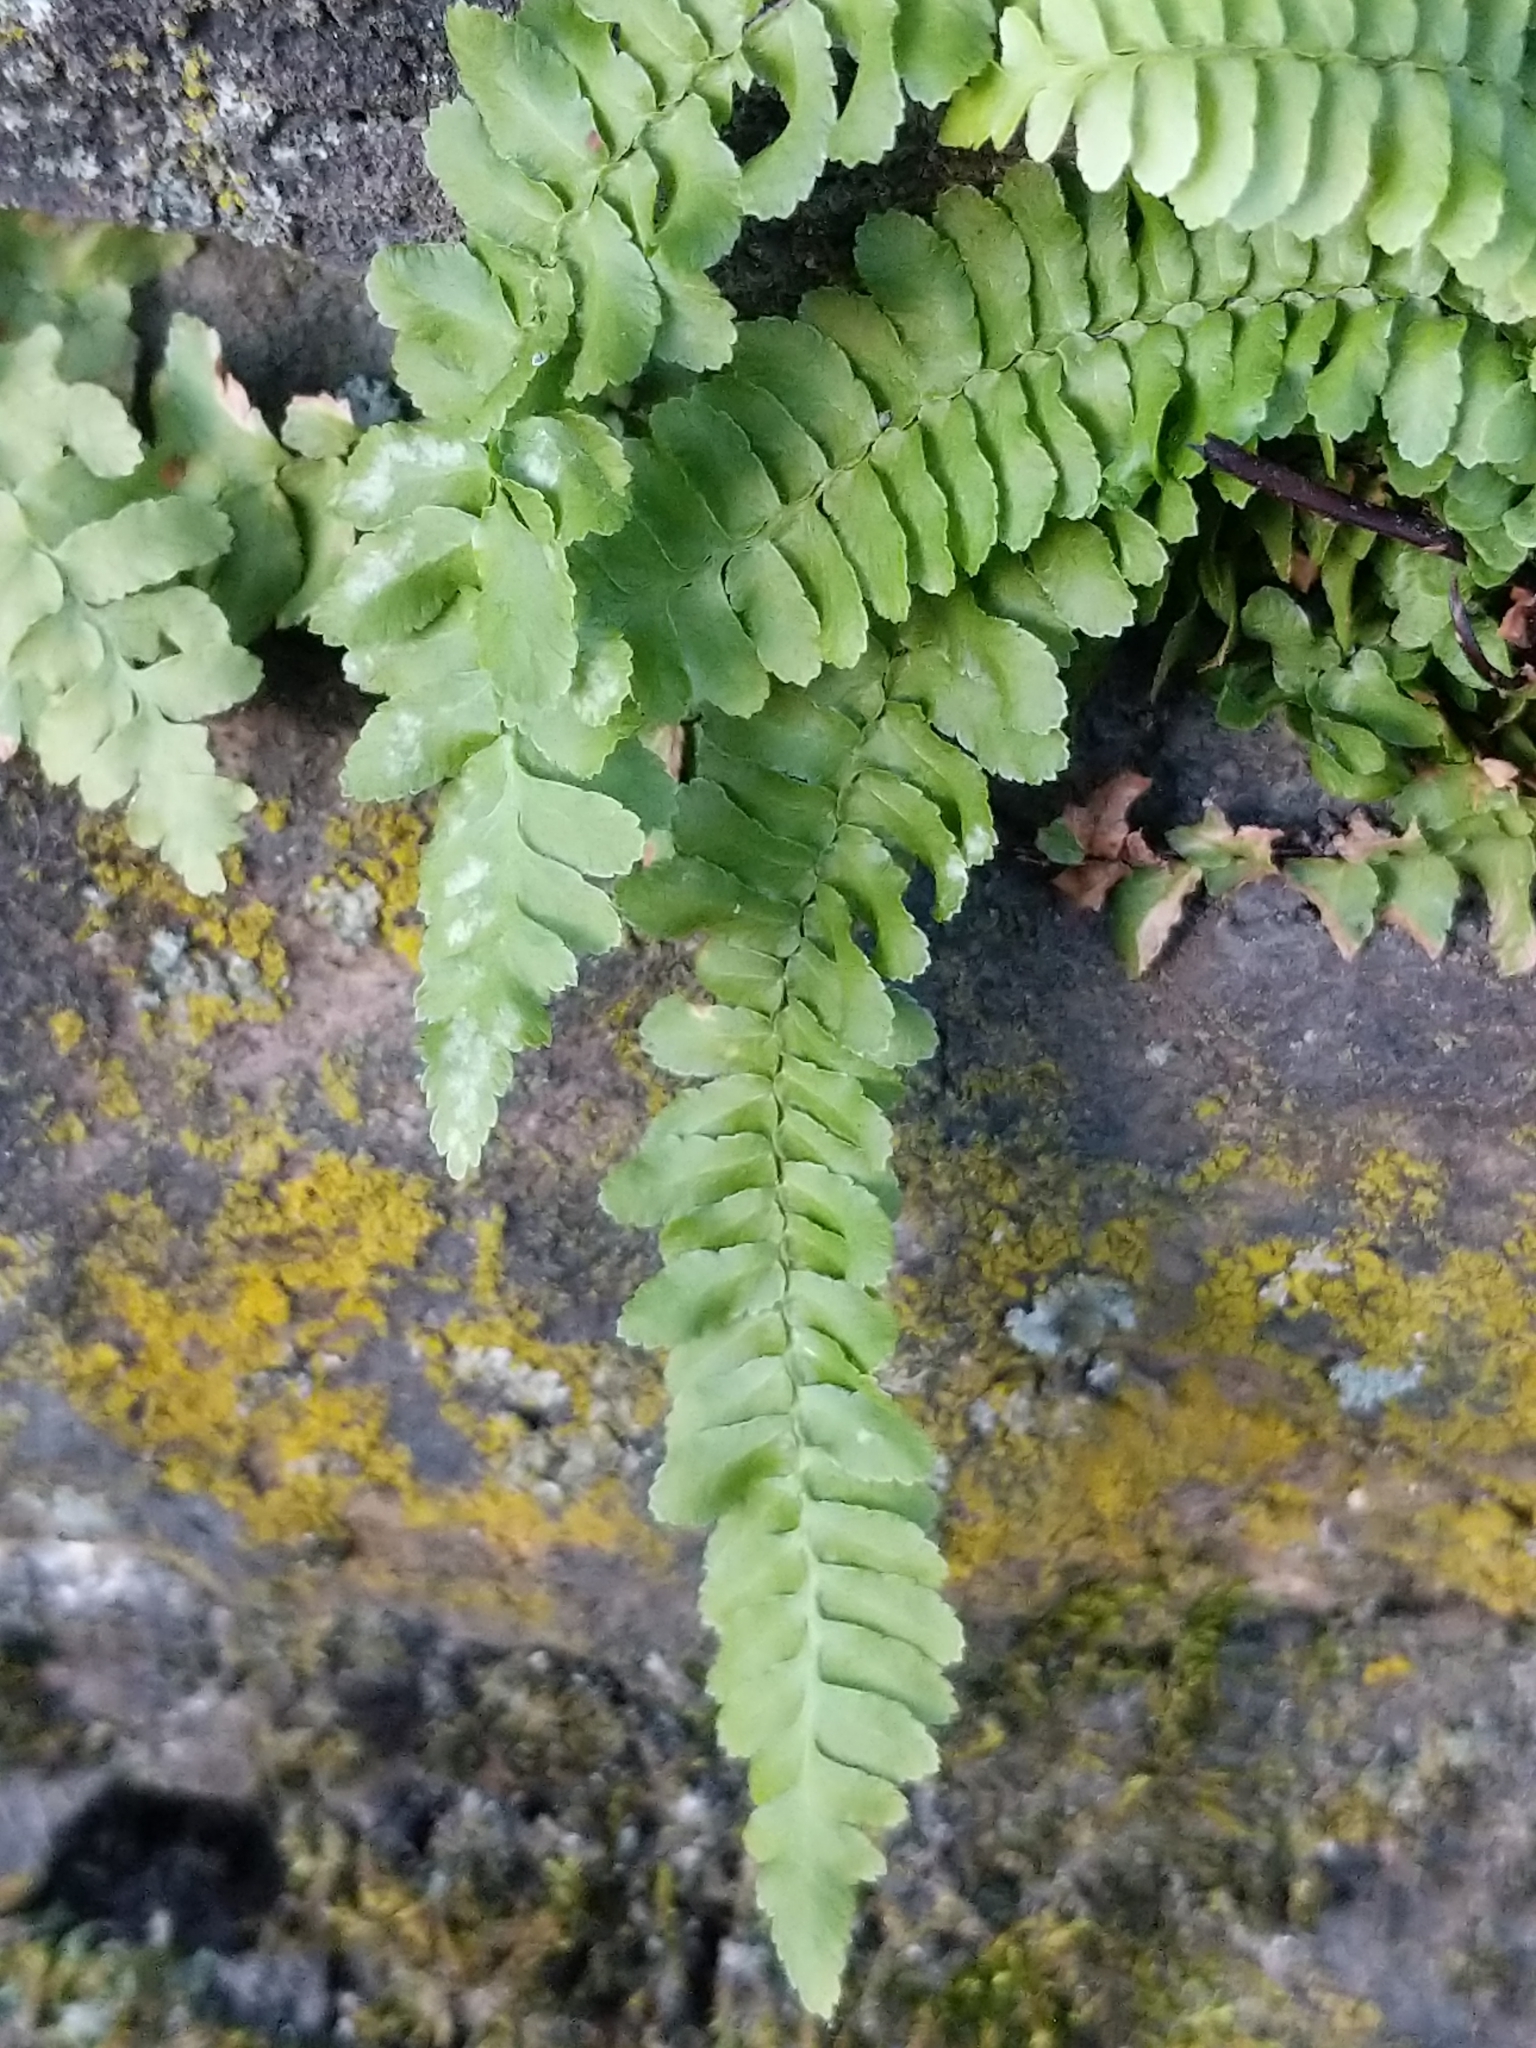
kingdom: Plantae
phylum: Tracheophyta
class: Polypodiopsida
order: Polypodiales
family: Aspleniaceae
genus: Asplenium
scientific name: Asplenium platyneuron
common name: Ebony spleenwort
